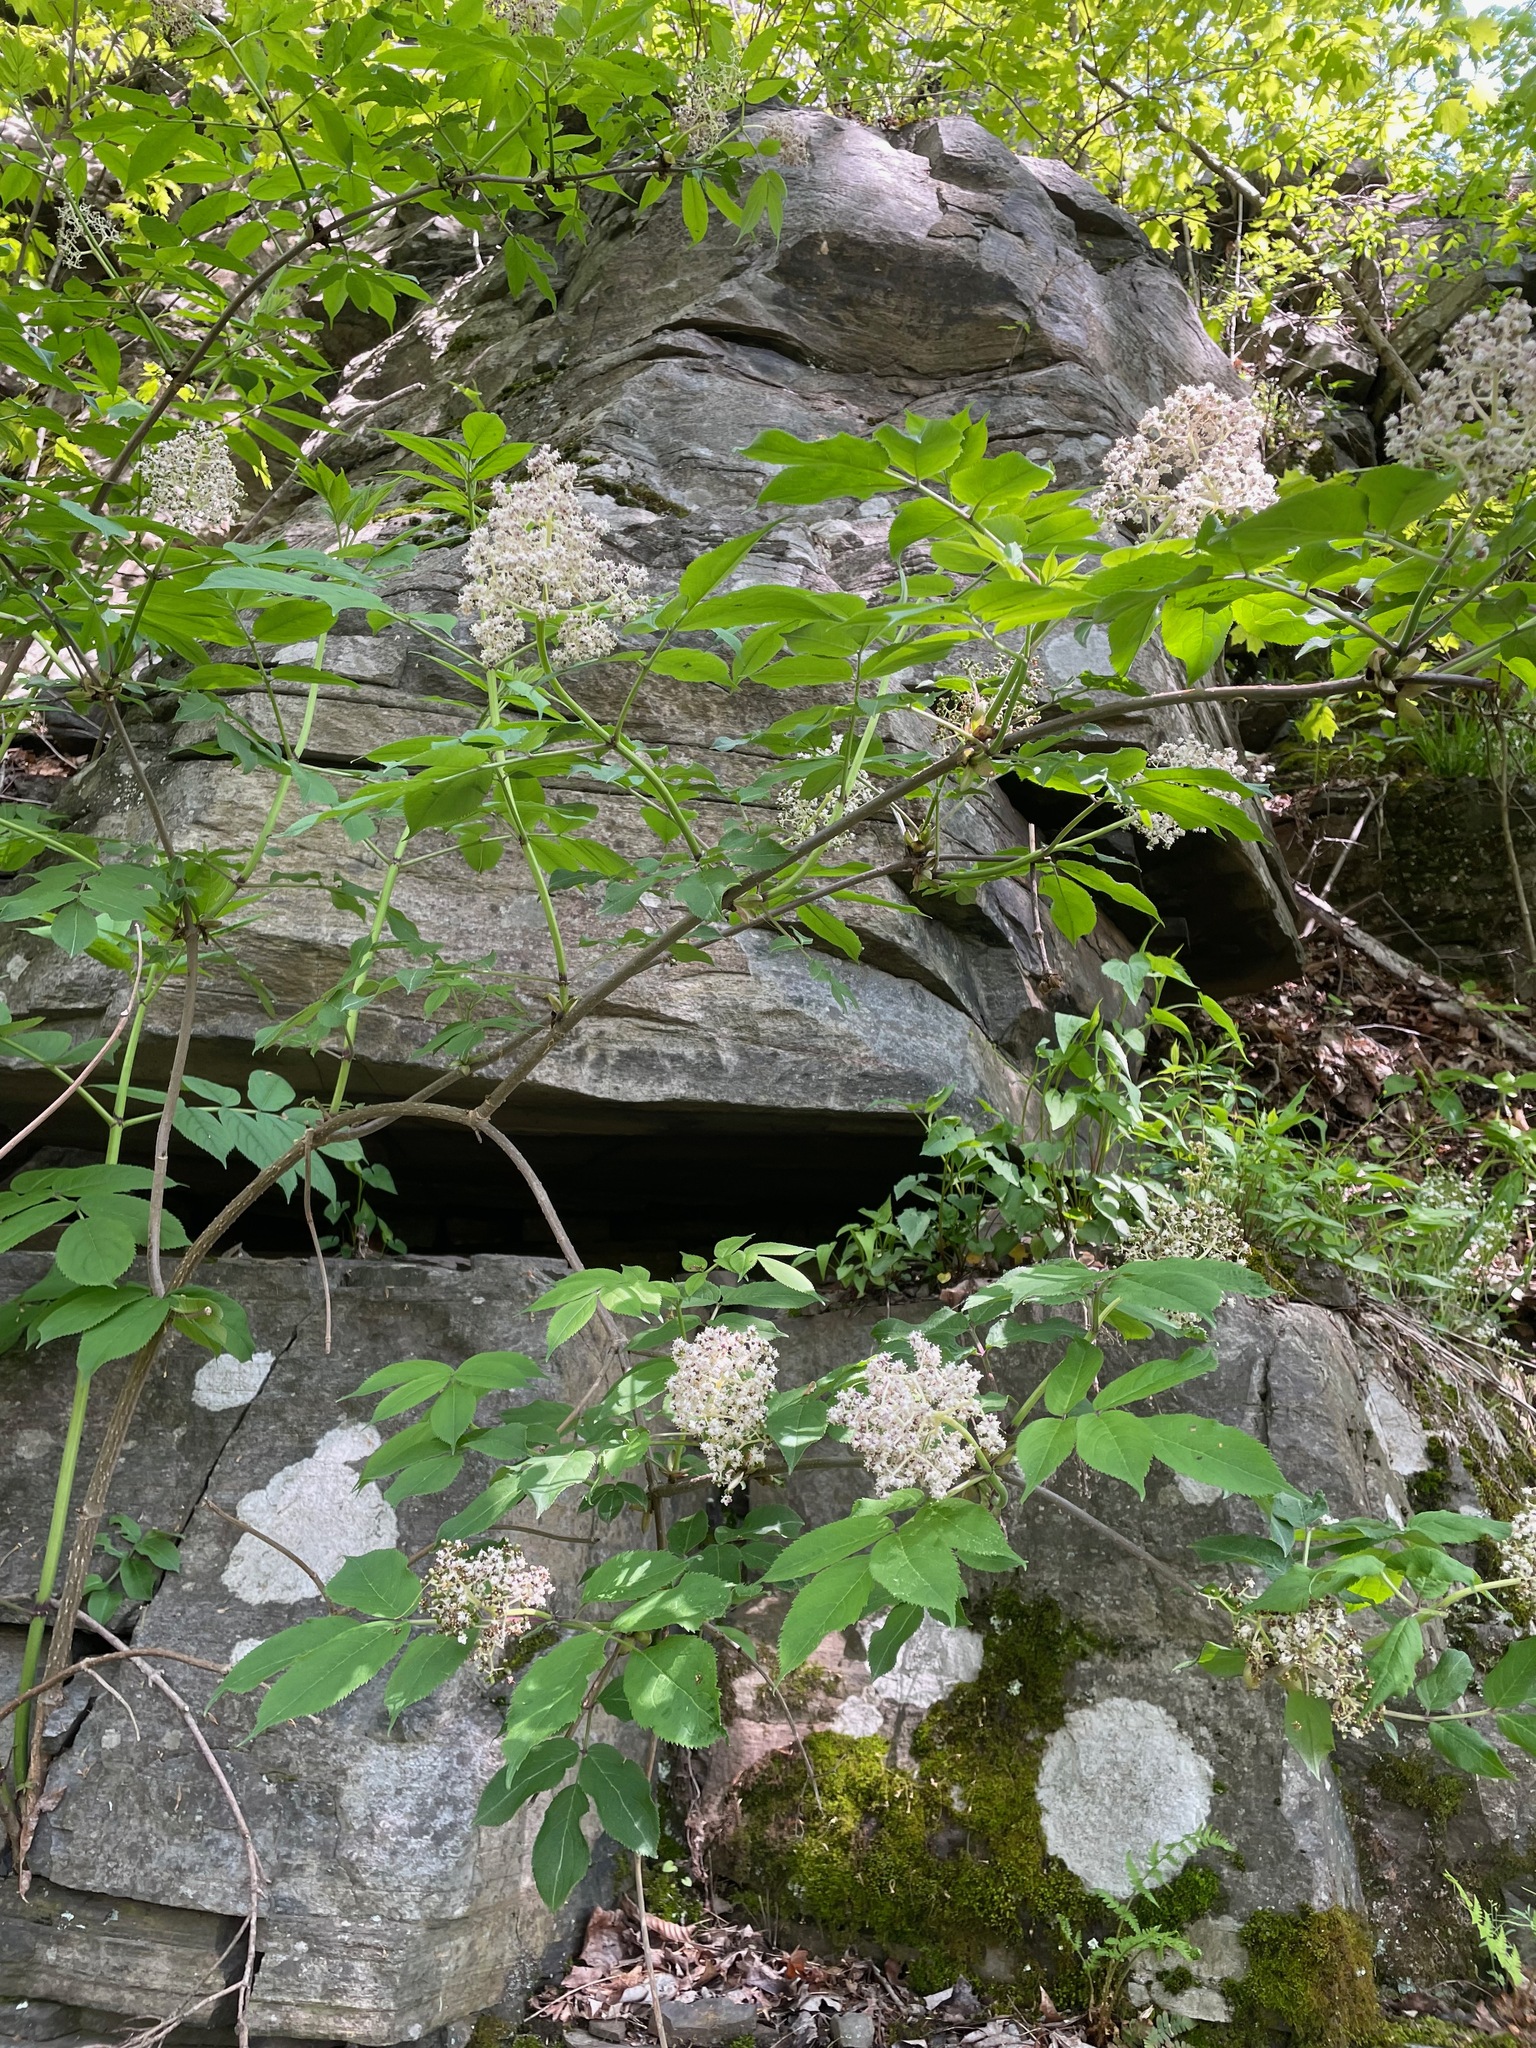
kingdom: Plantae
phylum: Tracheophyta
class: Magnoliopsida
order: Dipsacales
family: Viburnaceae
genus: Sambucus
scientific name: Sambucus racemosa
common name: Red-berried elder
